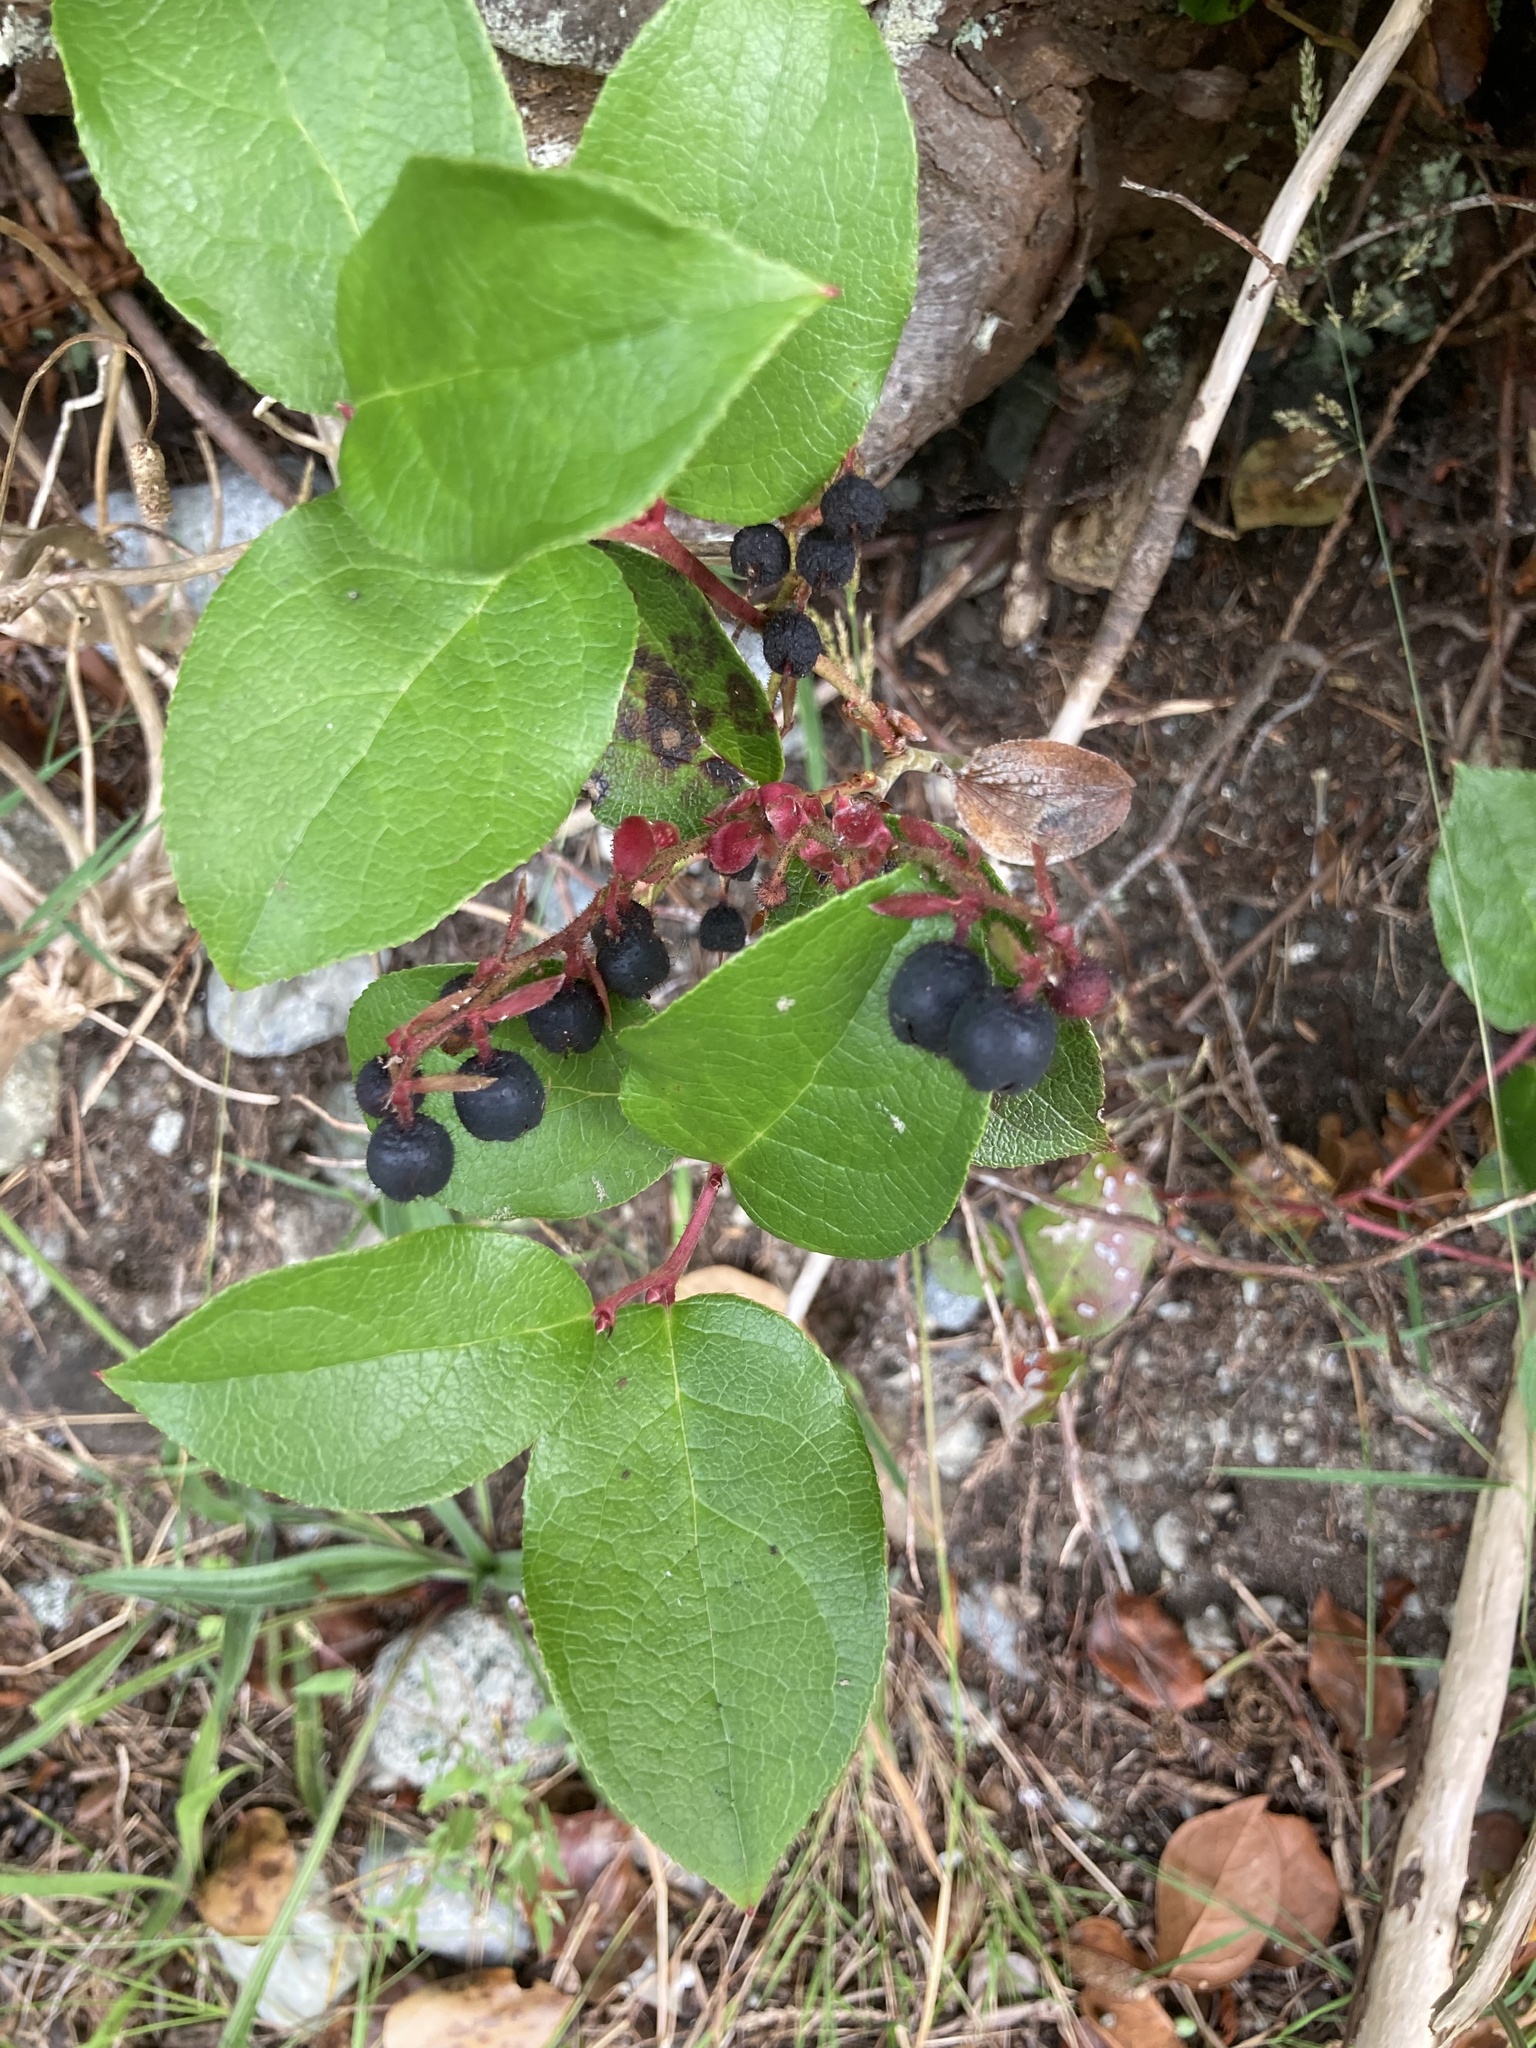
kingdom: Plantae
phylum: Tracheophyta
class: Magnoliopsida
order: Ericales
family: Ericaceae
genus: Gaultheria
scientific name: Gaultheria shallon
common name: Shallon
